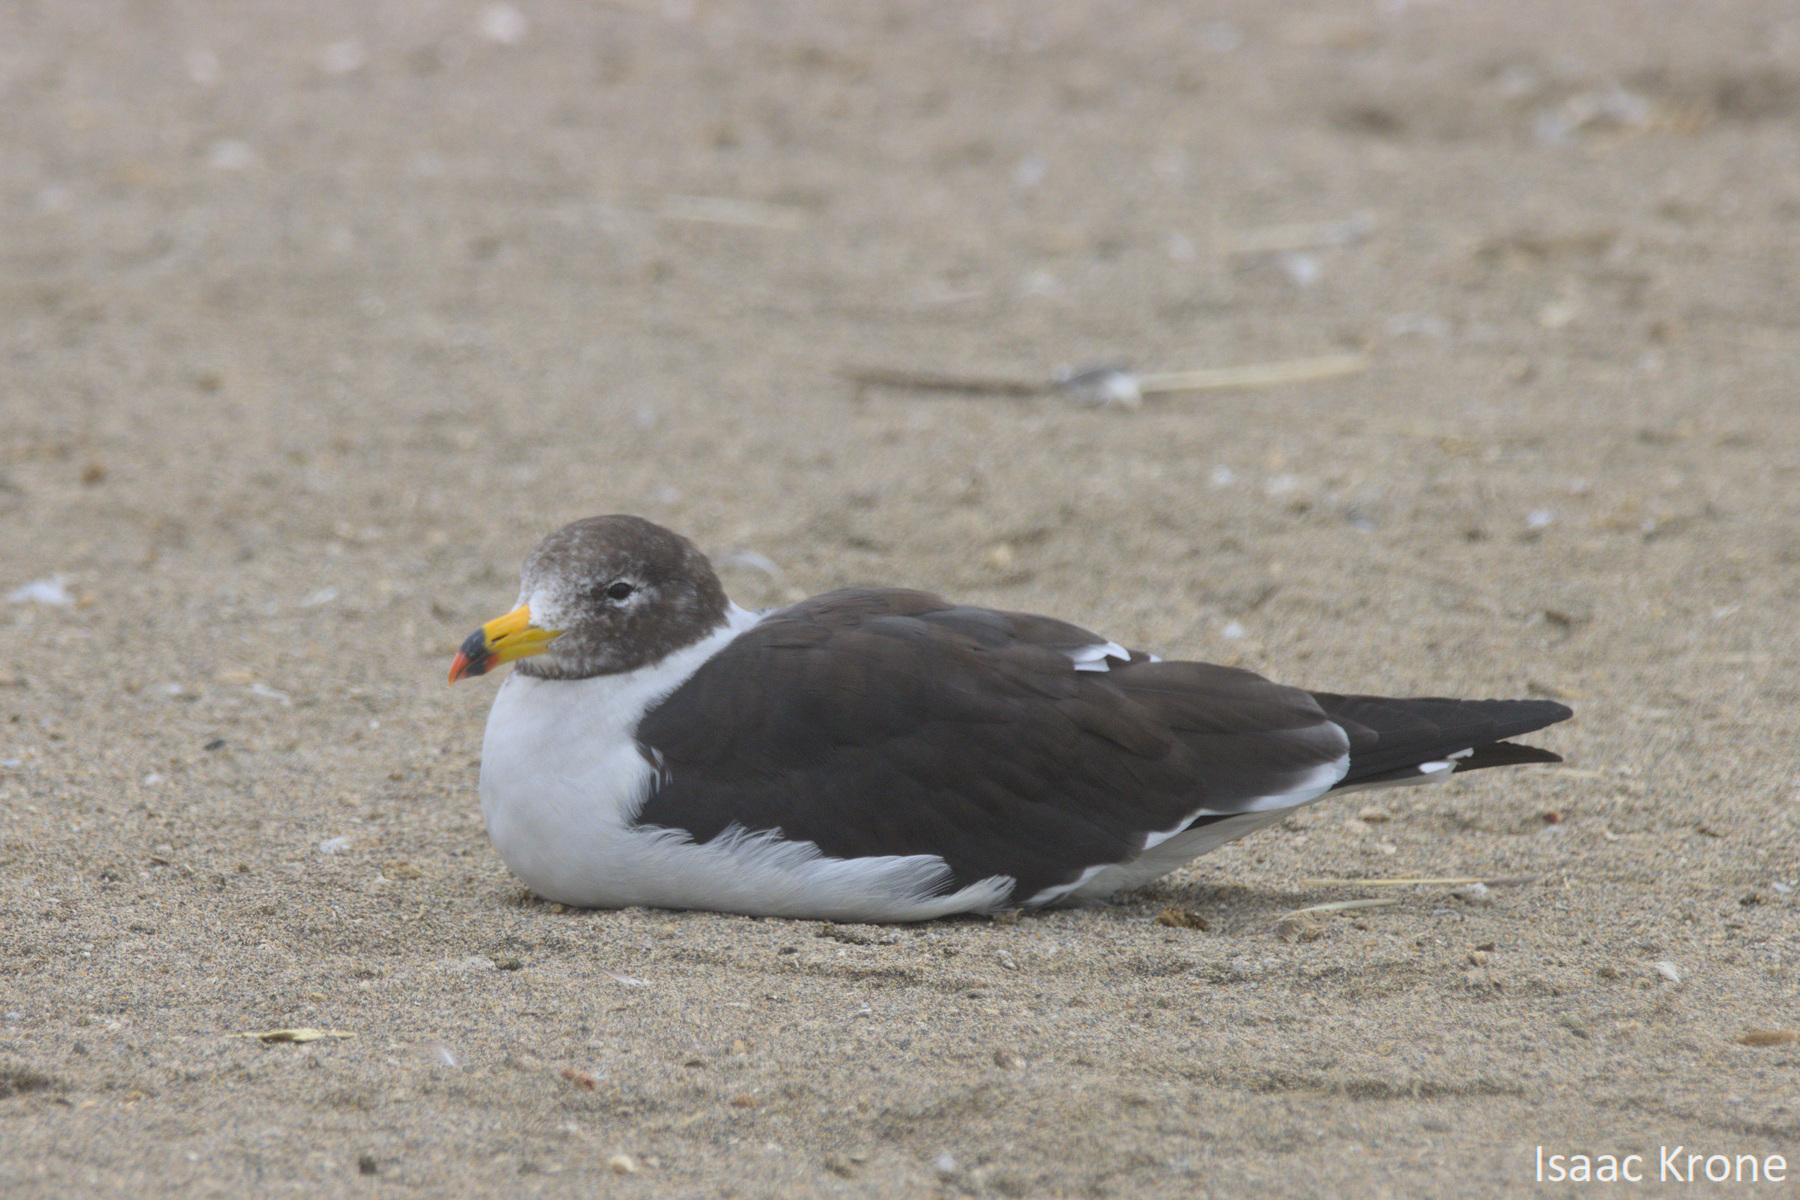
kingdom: Animalia
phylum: Chordata
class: Aves
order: Charadriiformes
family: Laridae
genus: Larus
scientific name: Larus belcheri
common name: Belcher's gull
